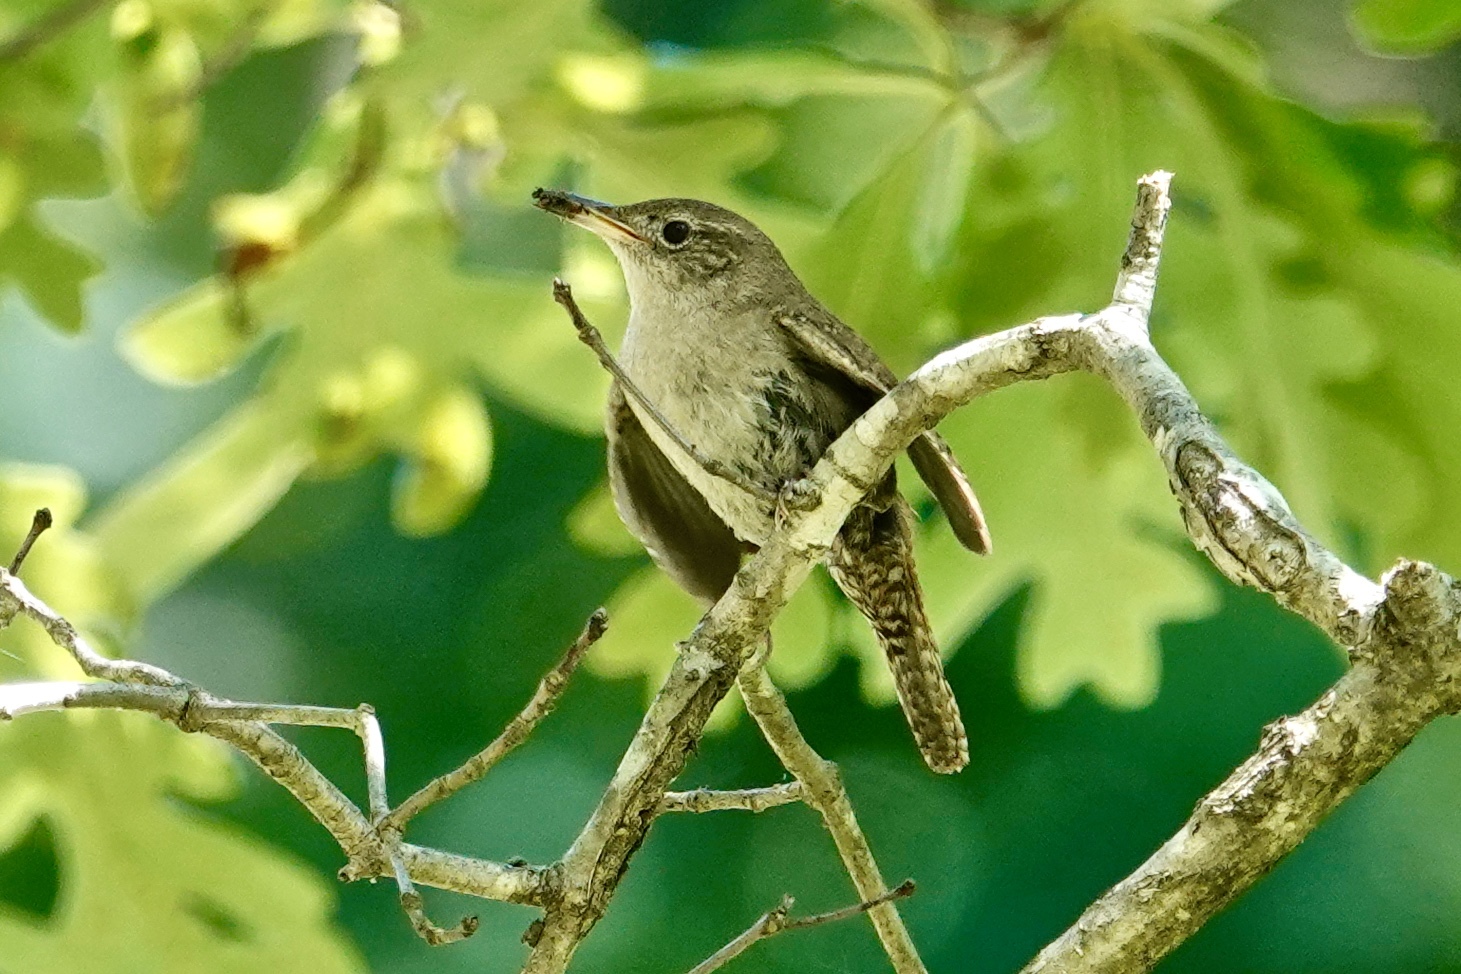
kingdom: Animalia
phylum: Chordata
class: Aves
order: Passeriformes
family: Troglodytidae
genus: Troglodytes
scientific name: Troglodytes aedon
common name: House wren
